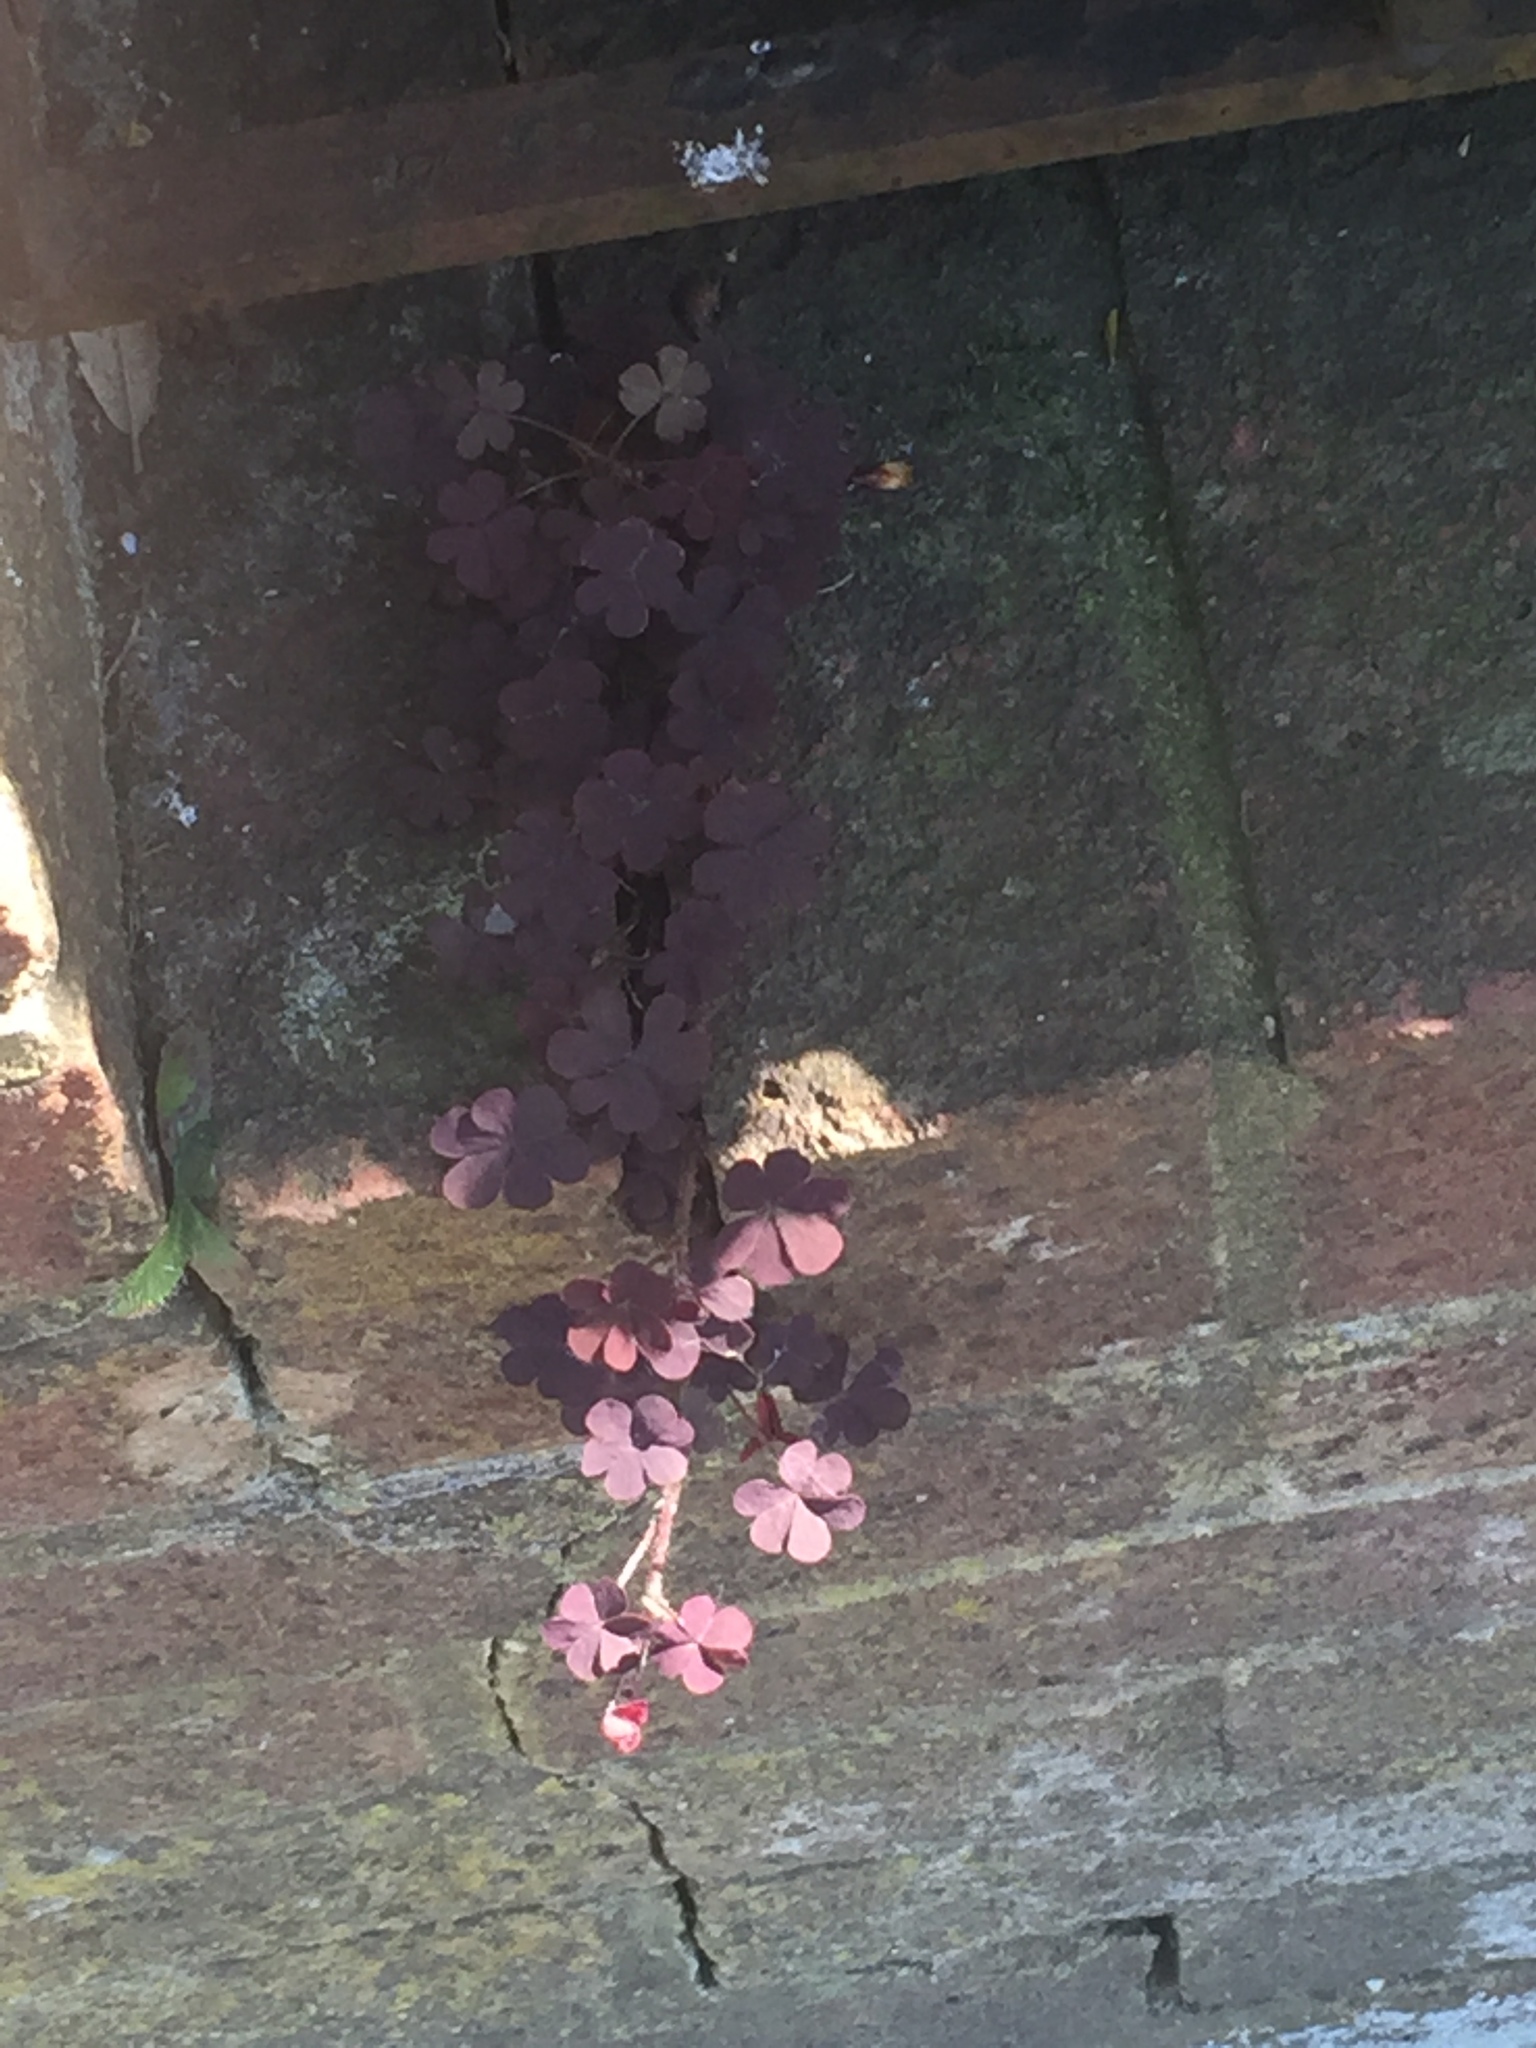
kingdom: Plantae
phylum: Tracheophyta
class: Magnoliopsida
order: Oxalidales
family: Oxalidaceae
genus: Oxalis
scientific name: Oxalis corniculata
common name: Procumbent yellow-sorrel
